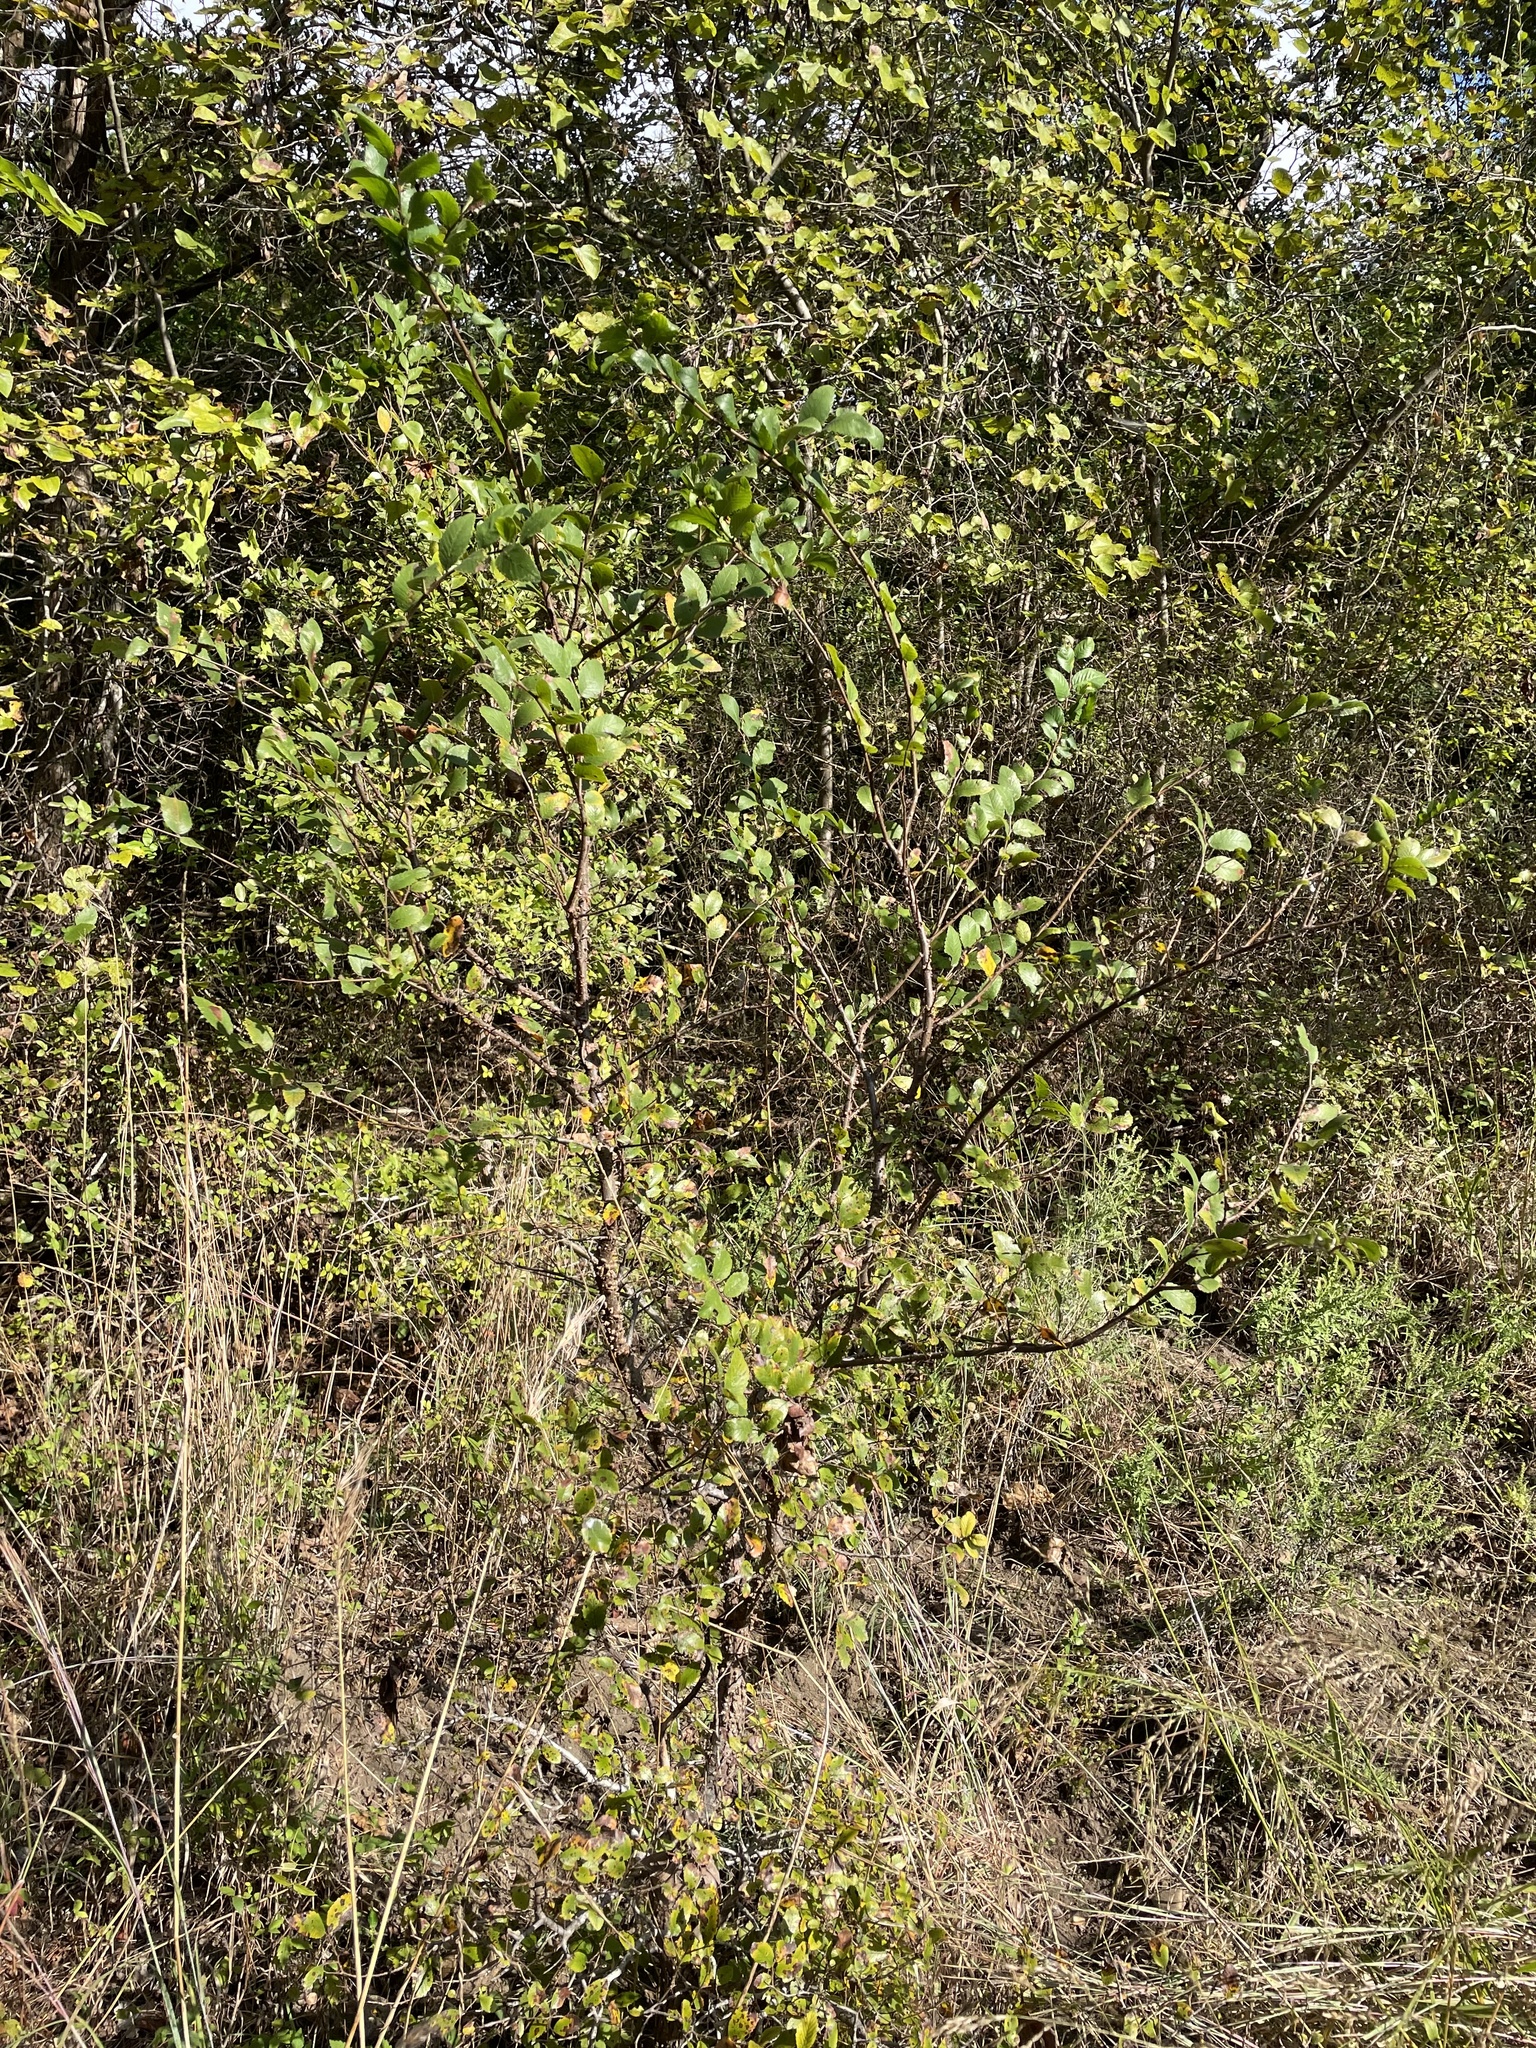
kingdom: Plantae
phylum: Tracheophyta
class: Magnoliopsida
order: Rosales
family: Ulmaceae
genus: Ulmus
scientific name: Ulmus crassifolia
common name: Basket elm
